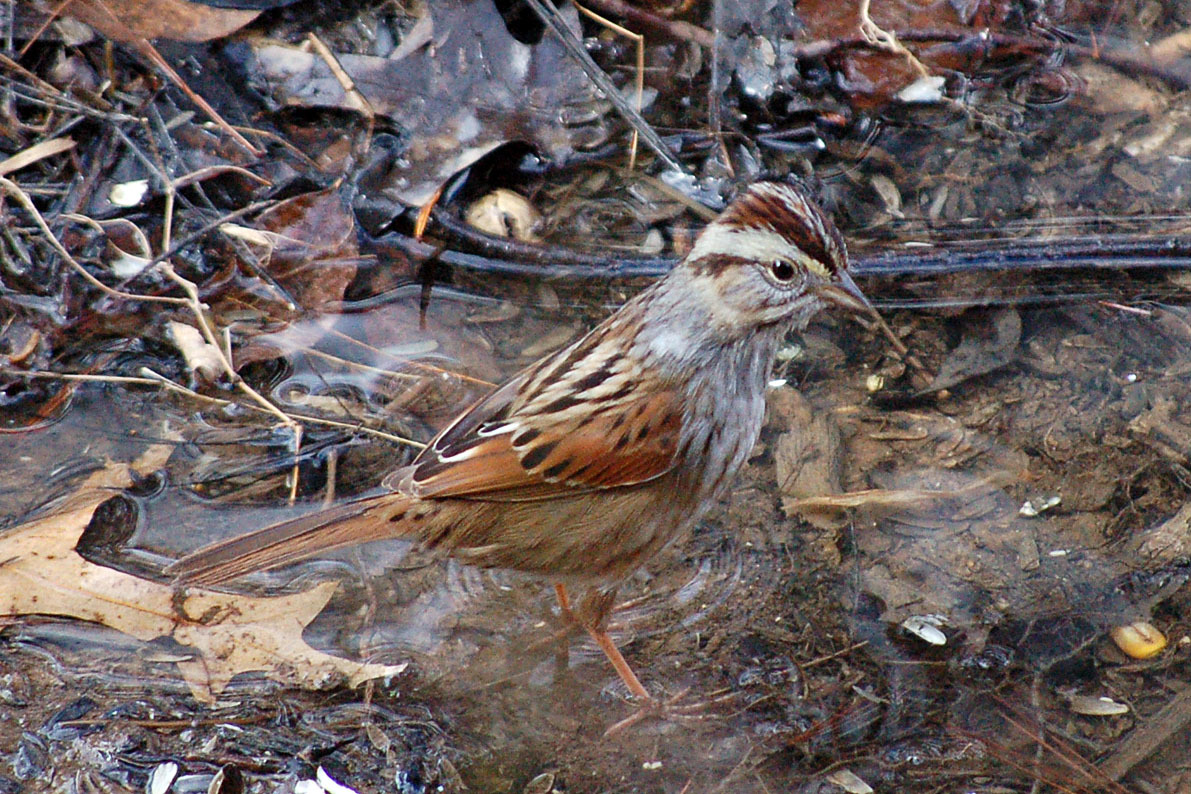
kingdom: Animalia
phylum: Chordata
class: Aves
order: Passeriformes
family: Passerellidae
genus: Melospiza
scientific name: Melospiza georgiana
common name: Swamp sparrow
